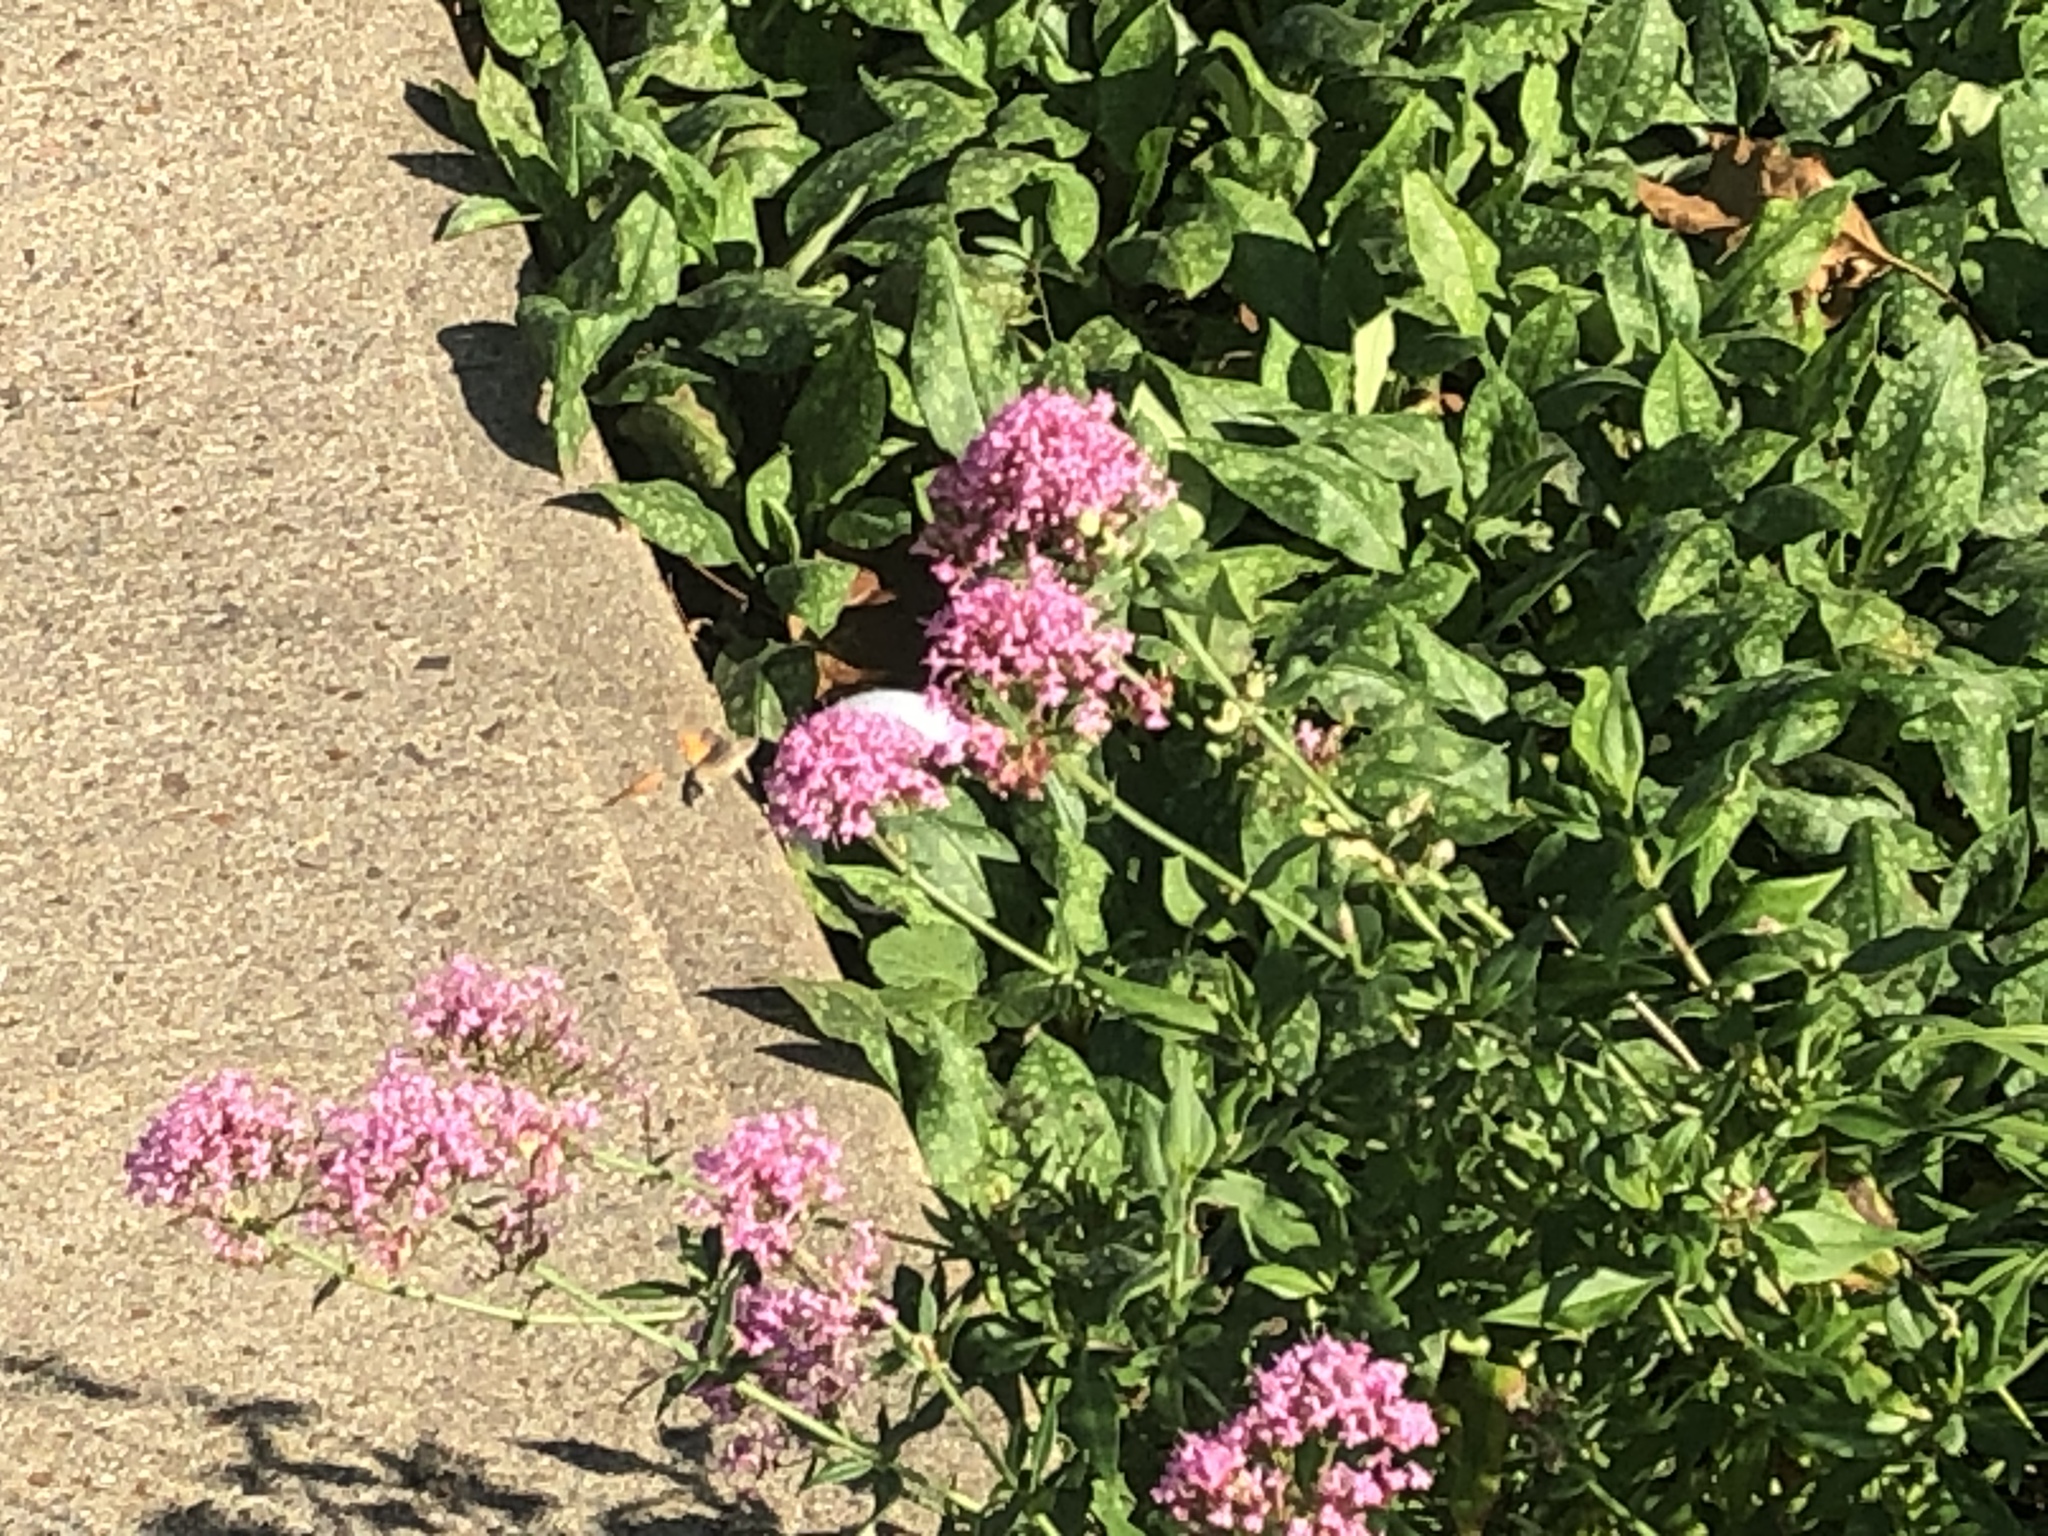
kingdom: Animalia
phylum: Arthropoda
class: Insecta
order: Lepidoptera
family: Sphingidae
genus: Macroglossum
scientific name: Macroglossum stellatarum
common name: Humming-bird hawk-moth
